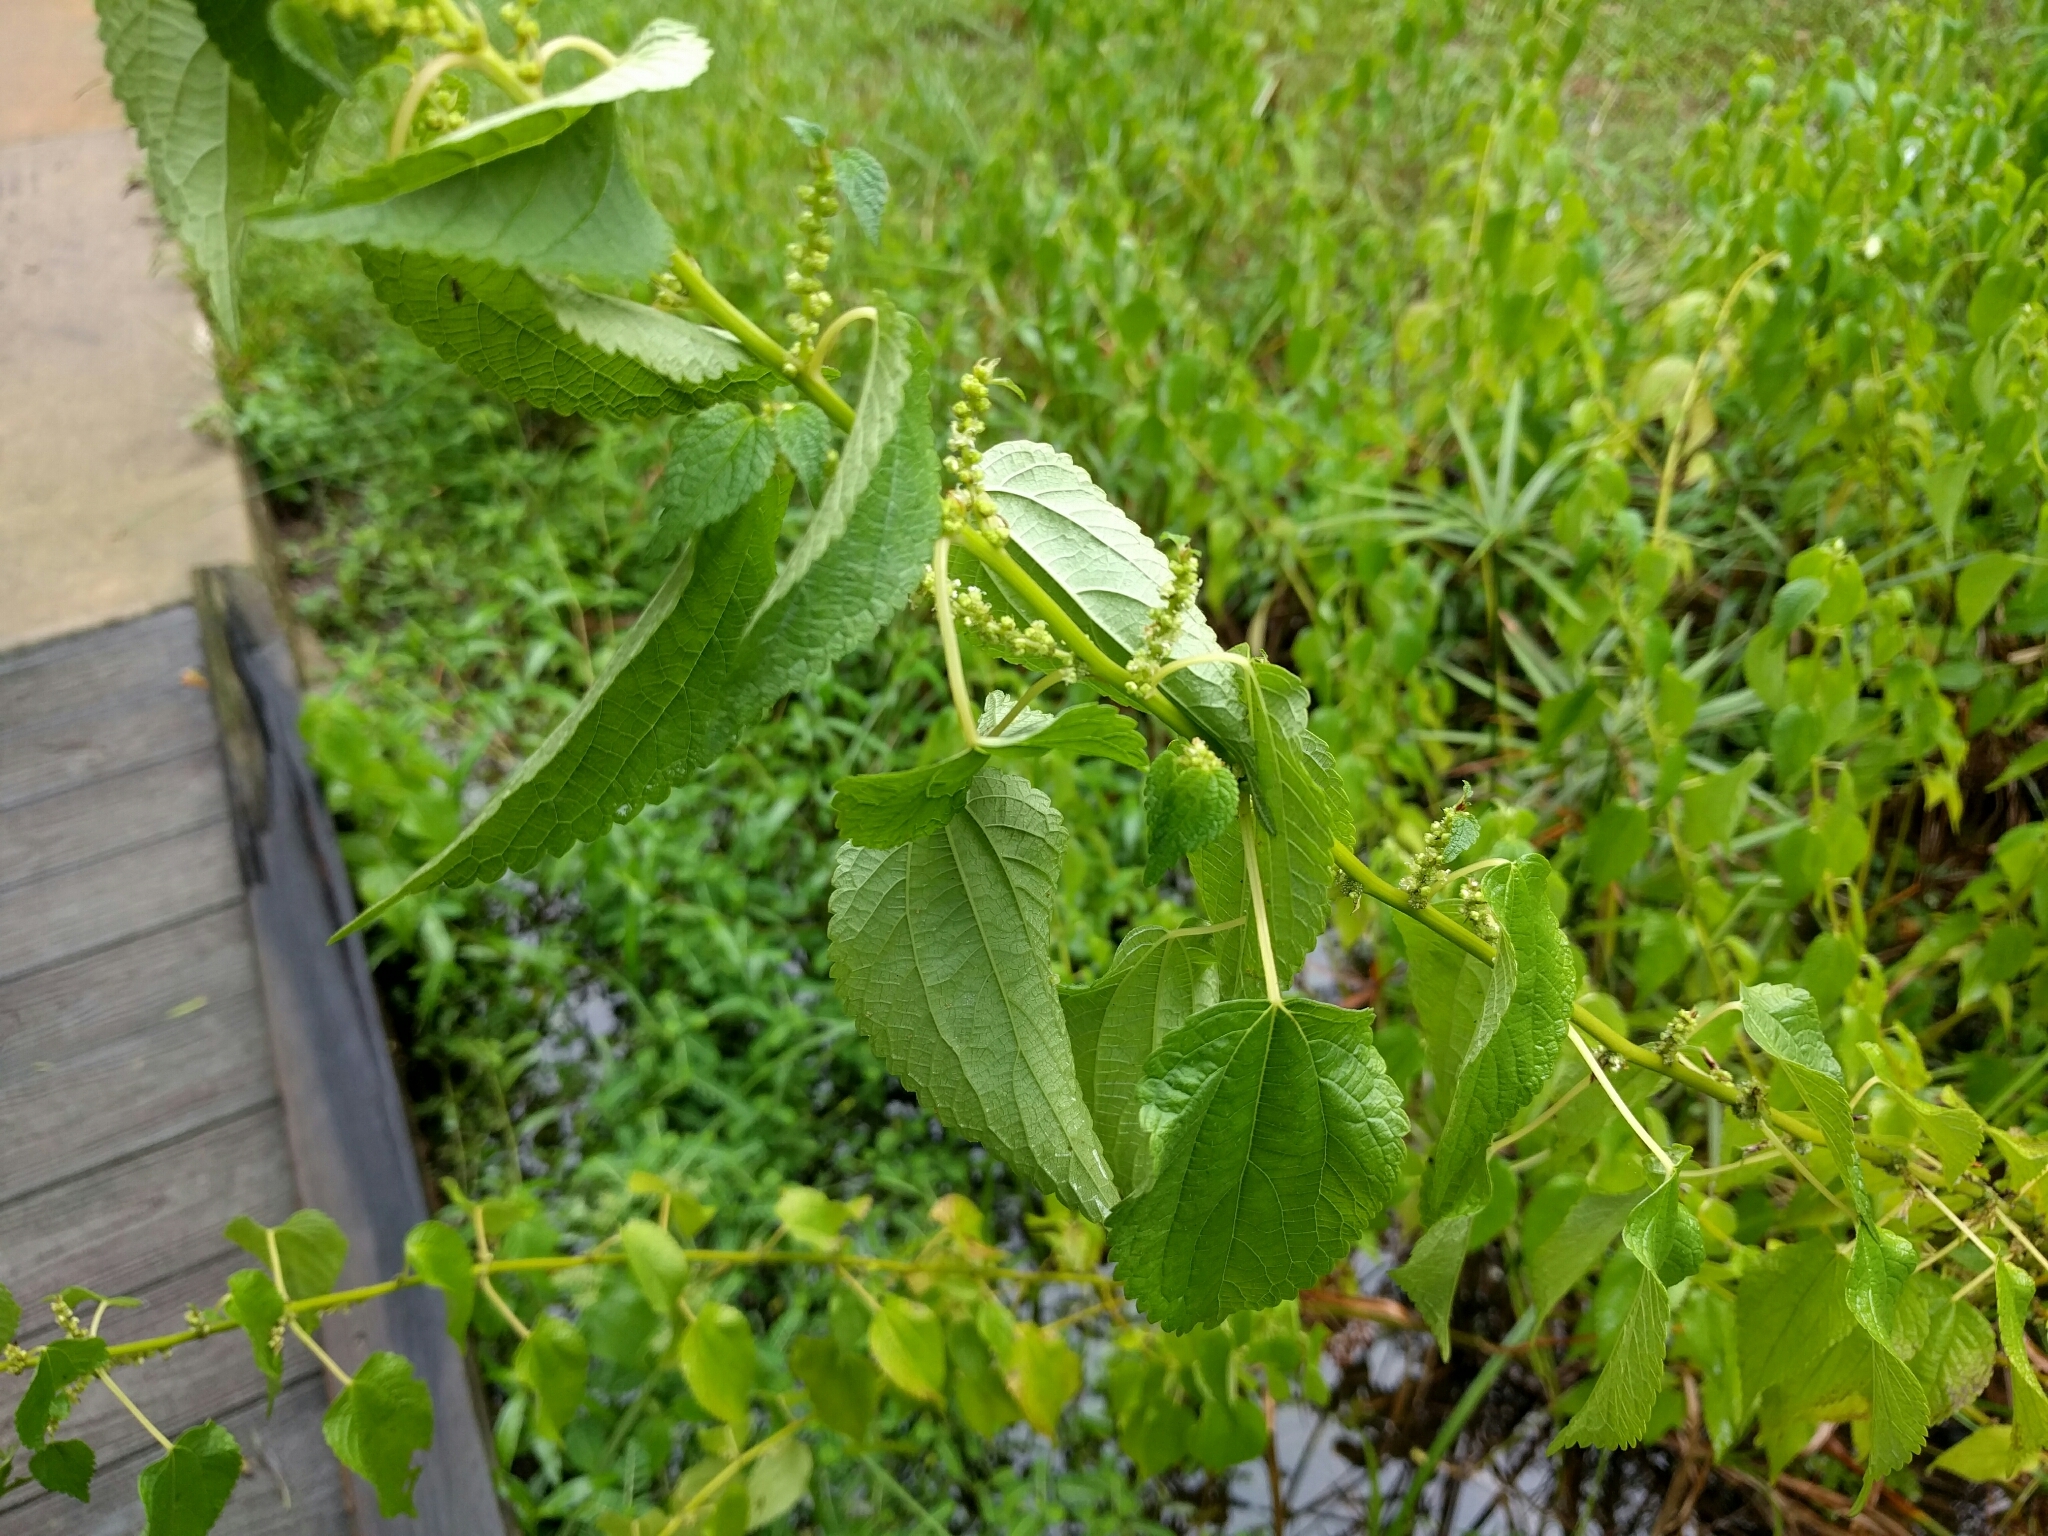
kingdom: Plantae
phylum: Tracheophyta
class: Magnoliopsida
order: Rosales
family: Urticaceae
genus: Boehmeria
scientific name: Boehmeria cylindrica
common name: Bog-hemp
